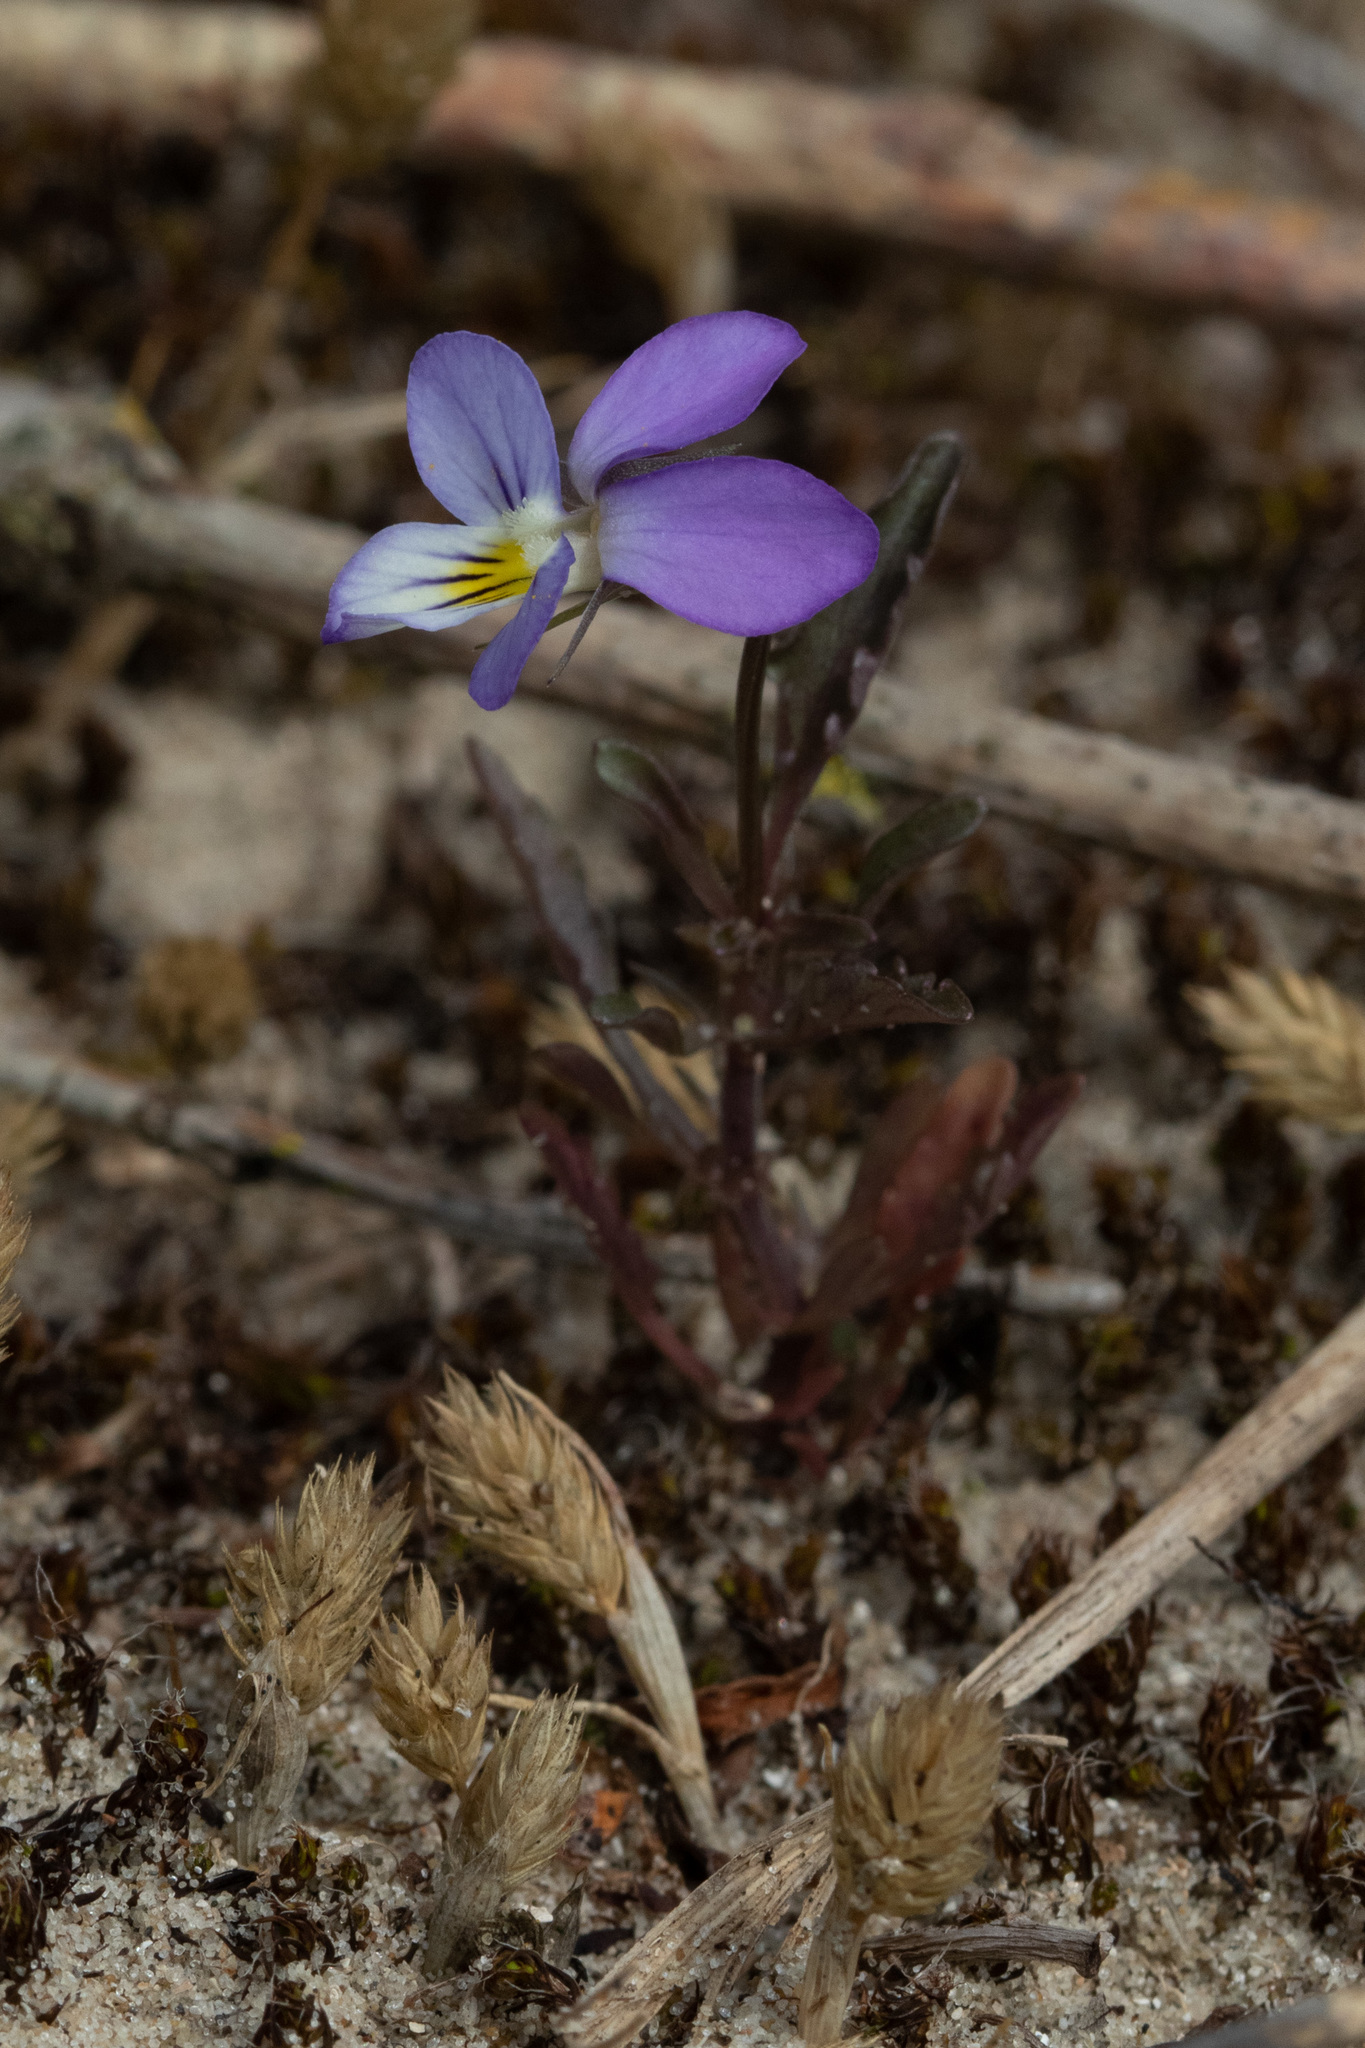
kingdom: Plantae
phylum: Tracheophyta
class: Magnoliopsida
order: Malpighiales
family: Violaceae
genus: Viola
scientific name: Viola tricolor
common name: Pansy
